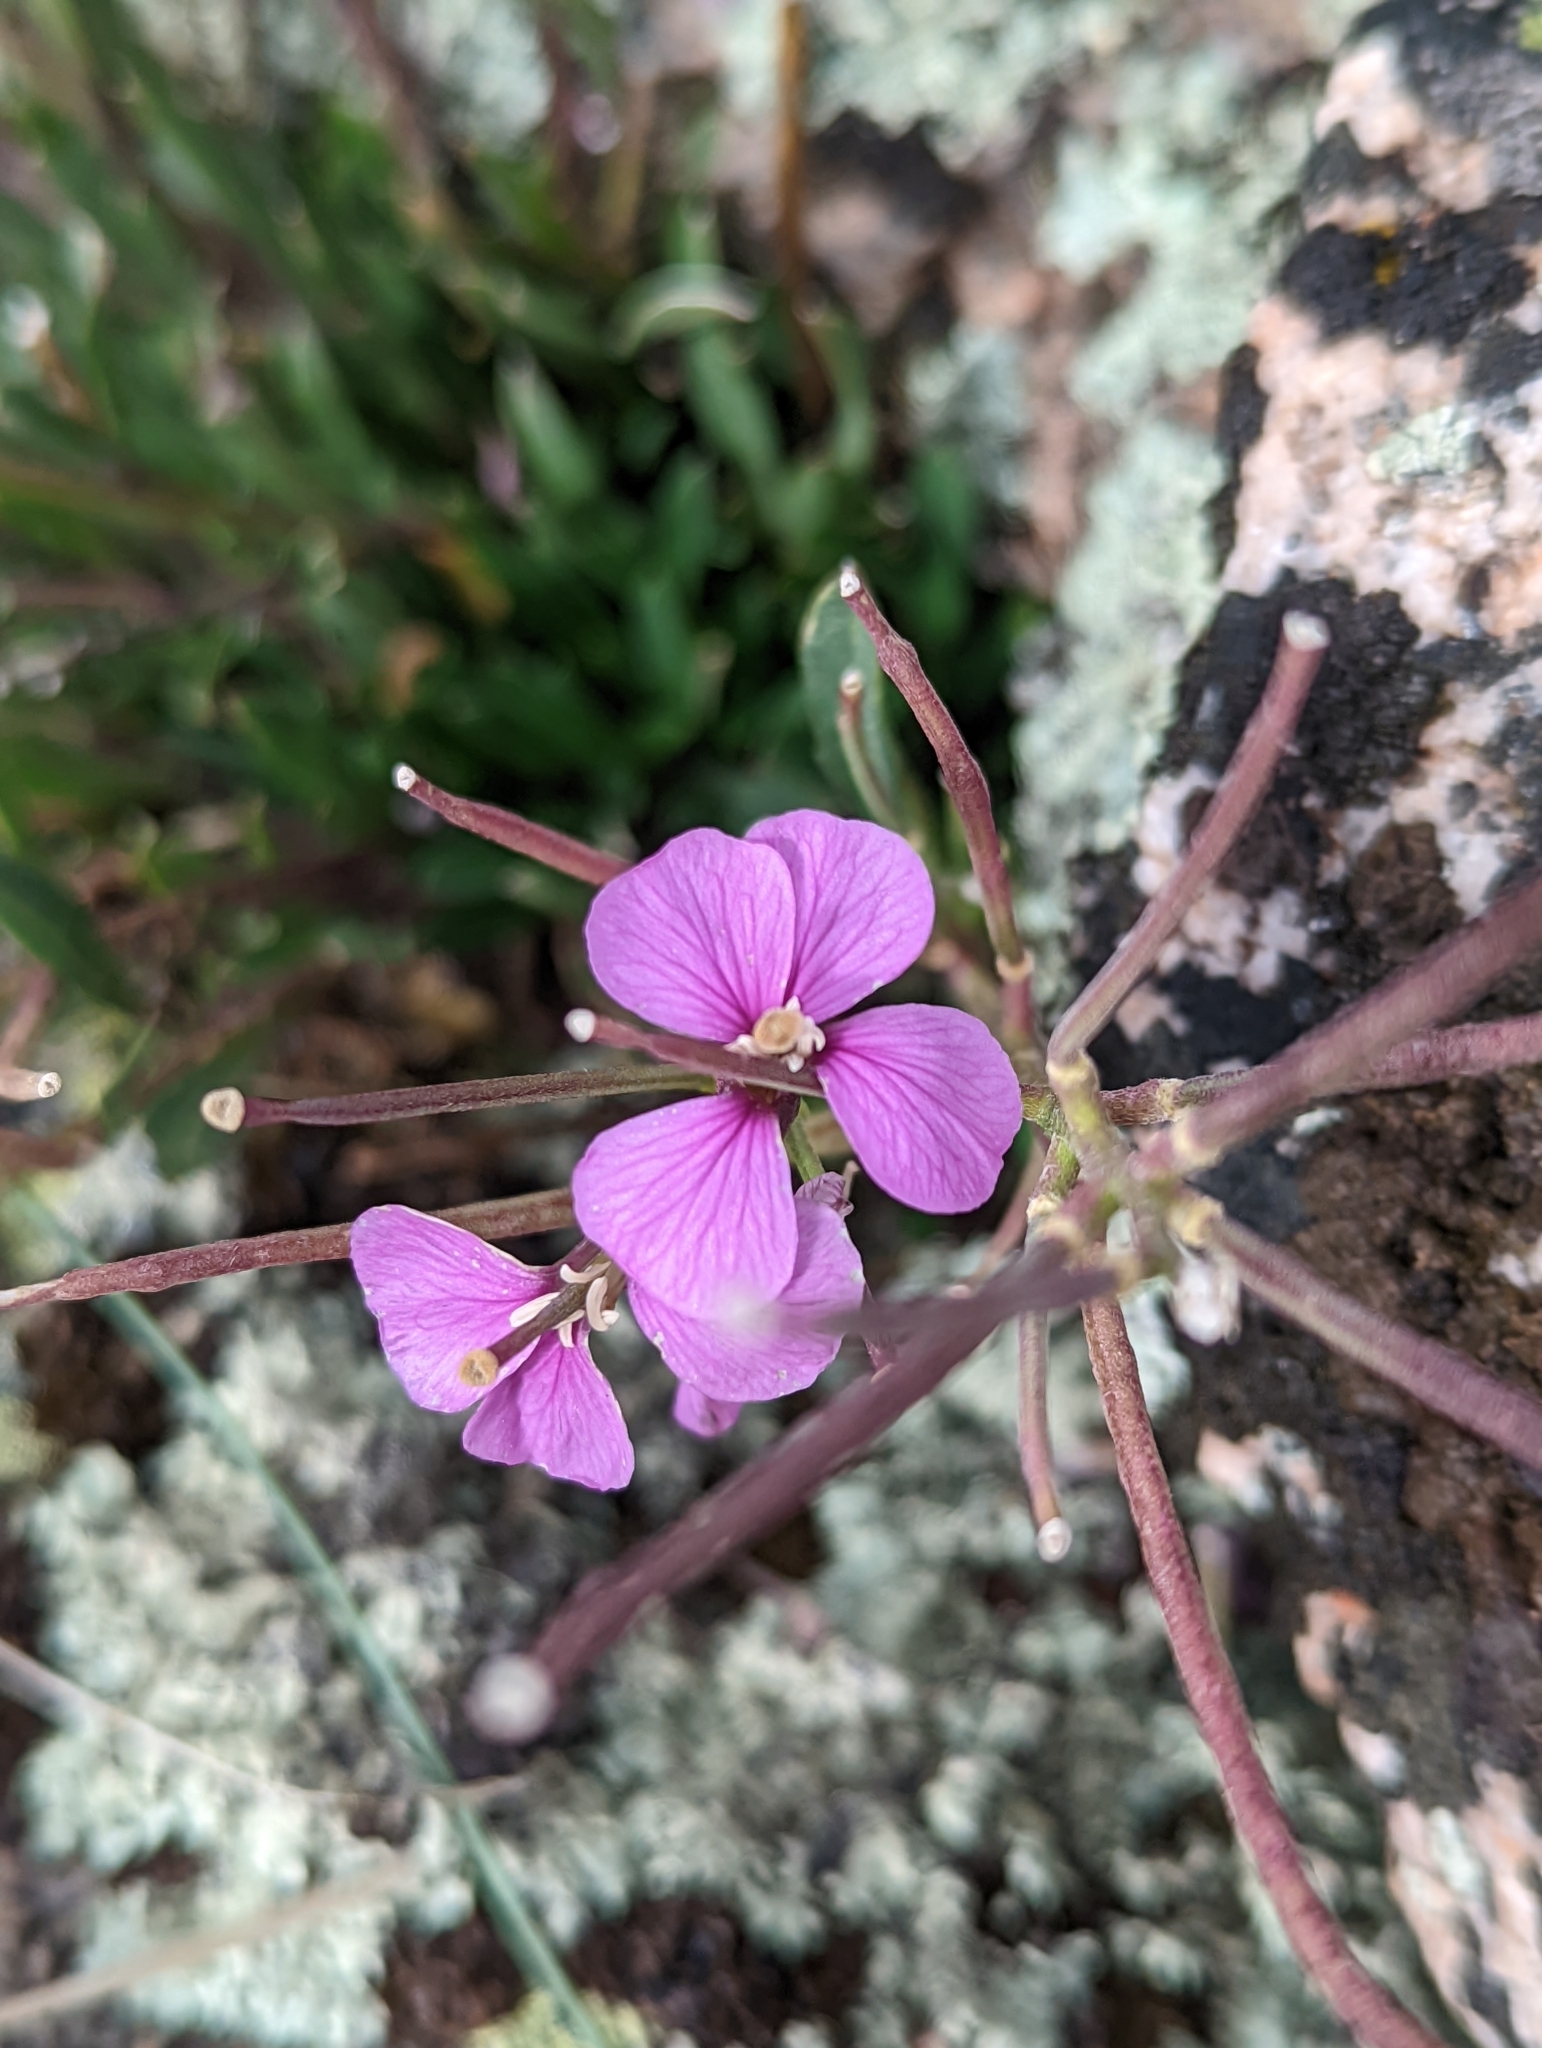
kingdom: Plantae
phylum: Tracheophyta
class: Magnoliopsida
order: Brassicales
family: Brassicaceae
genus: Erysimum
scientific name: Erysimum capitatum
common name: Western wallflower
